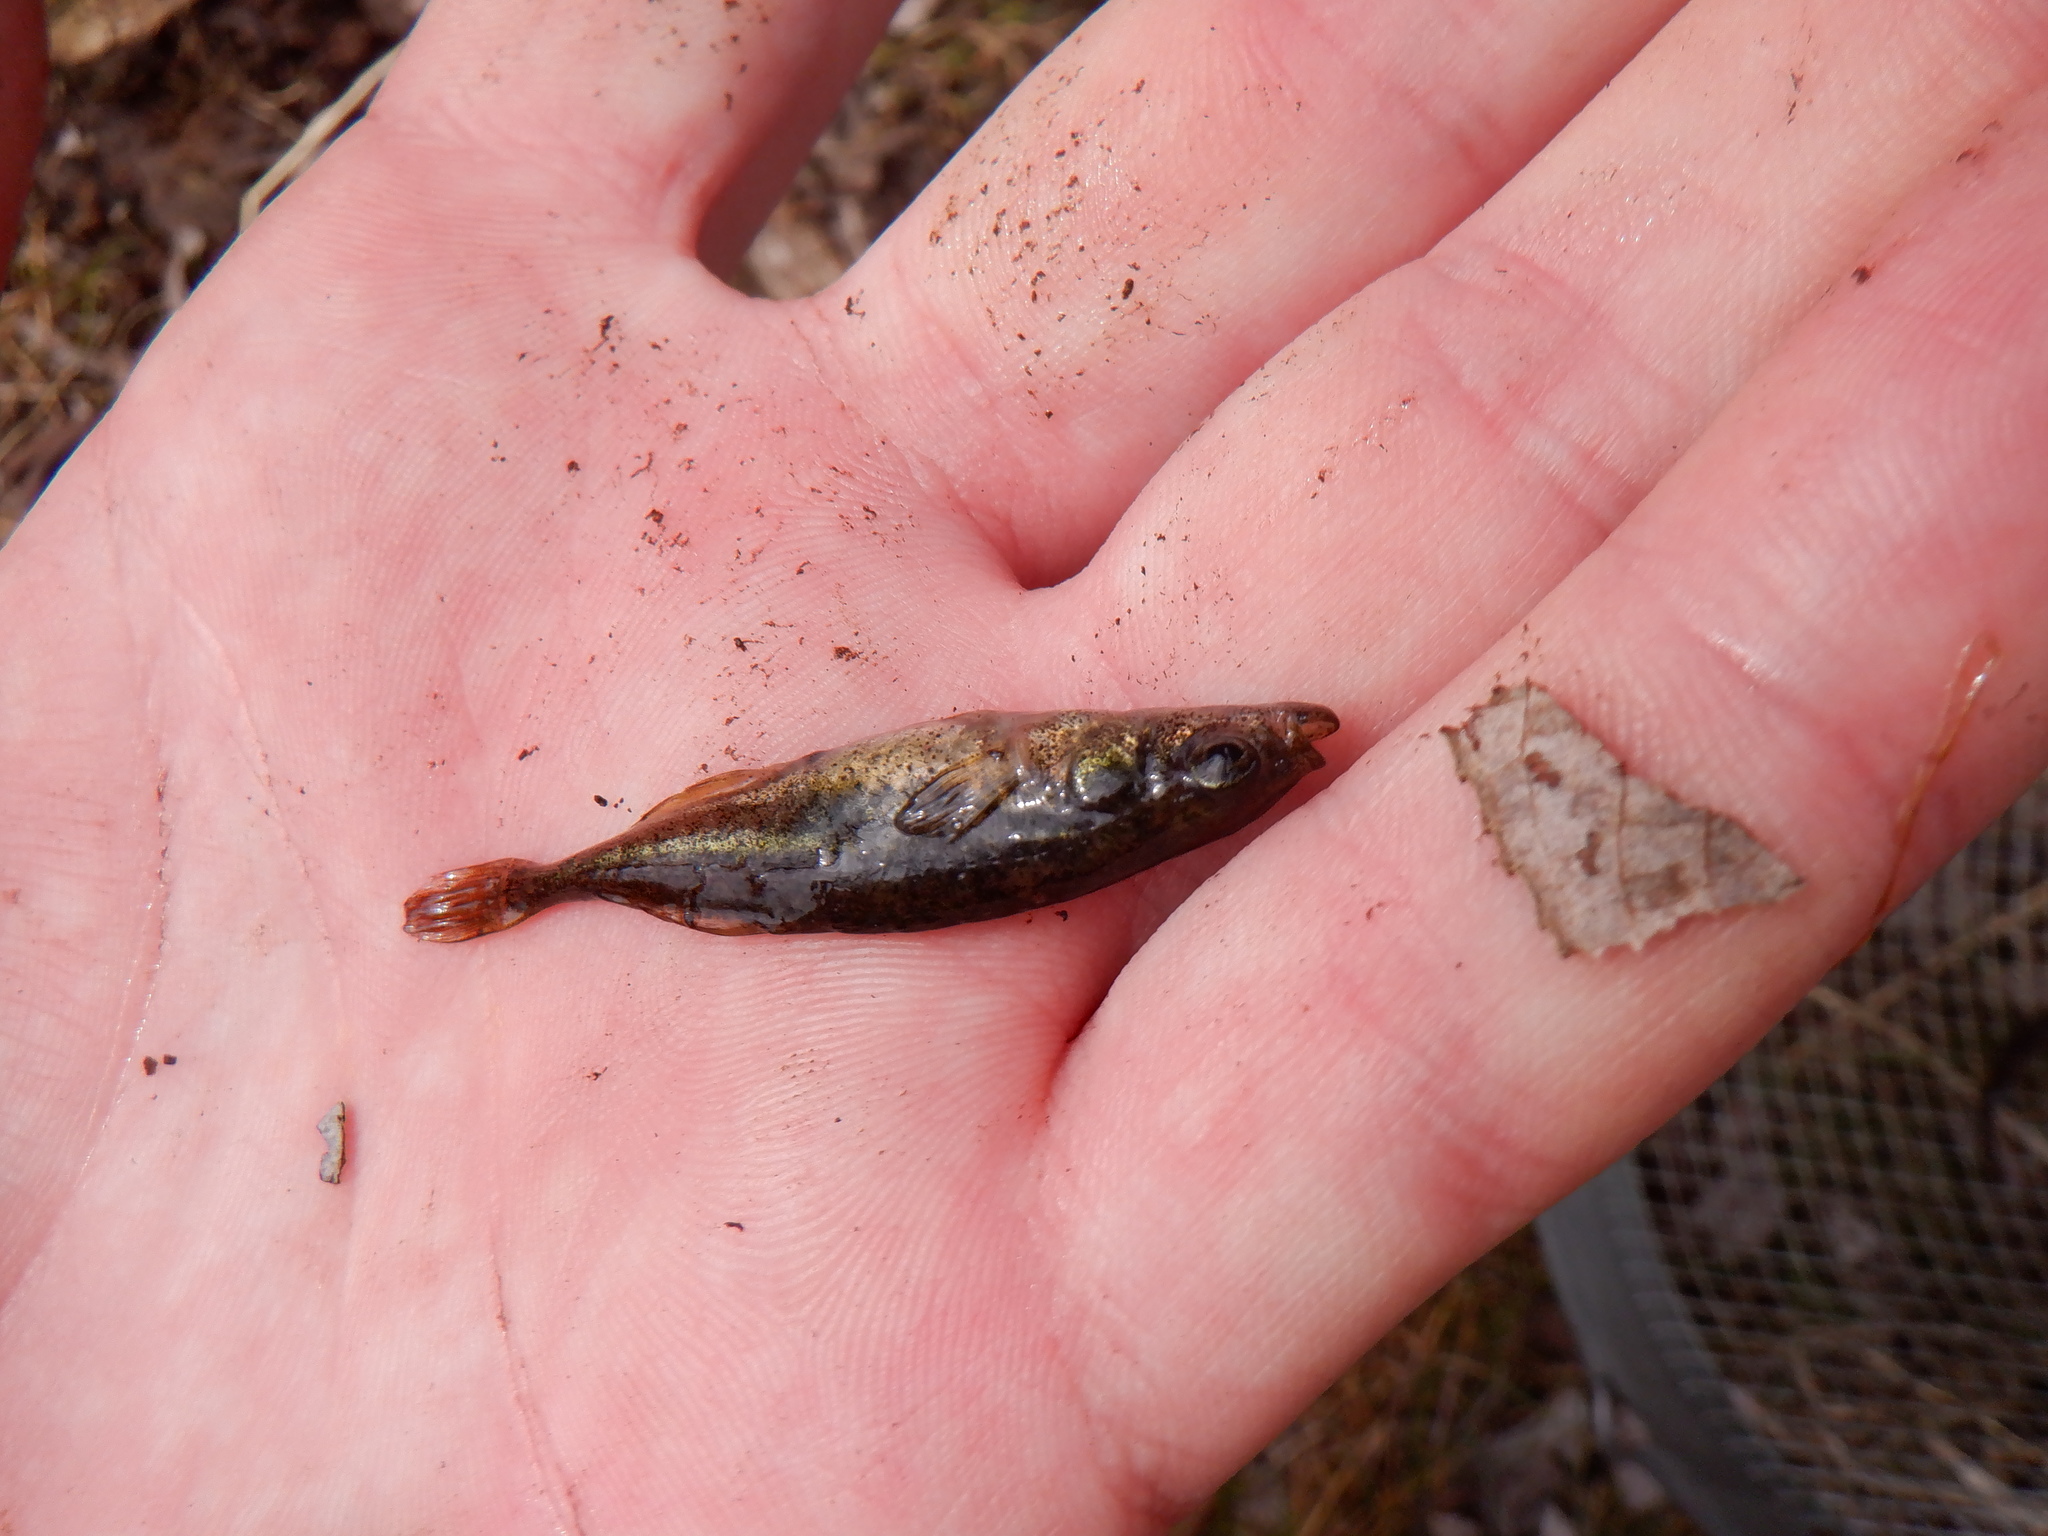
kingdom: Animalia
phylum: Chordata
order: Gasterosteiformes
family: Gasterosteidae
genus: Culaea
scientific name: Culaea inconstans
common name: Brook stickleback
